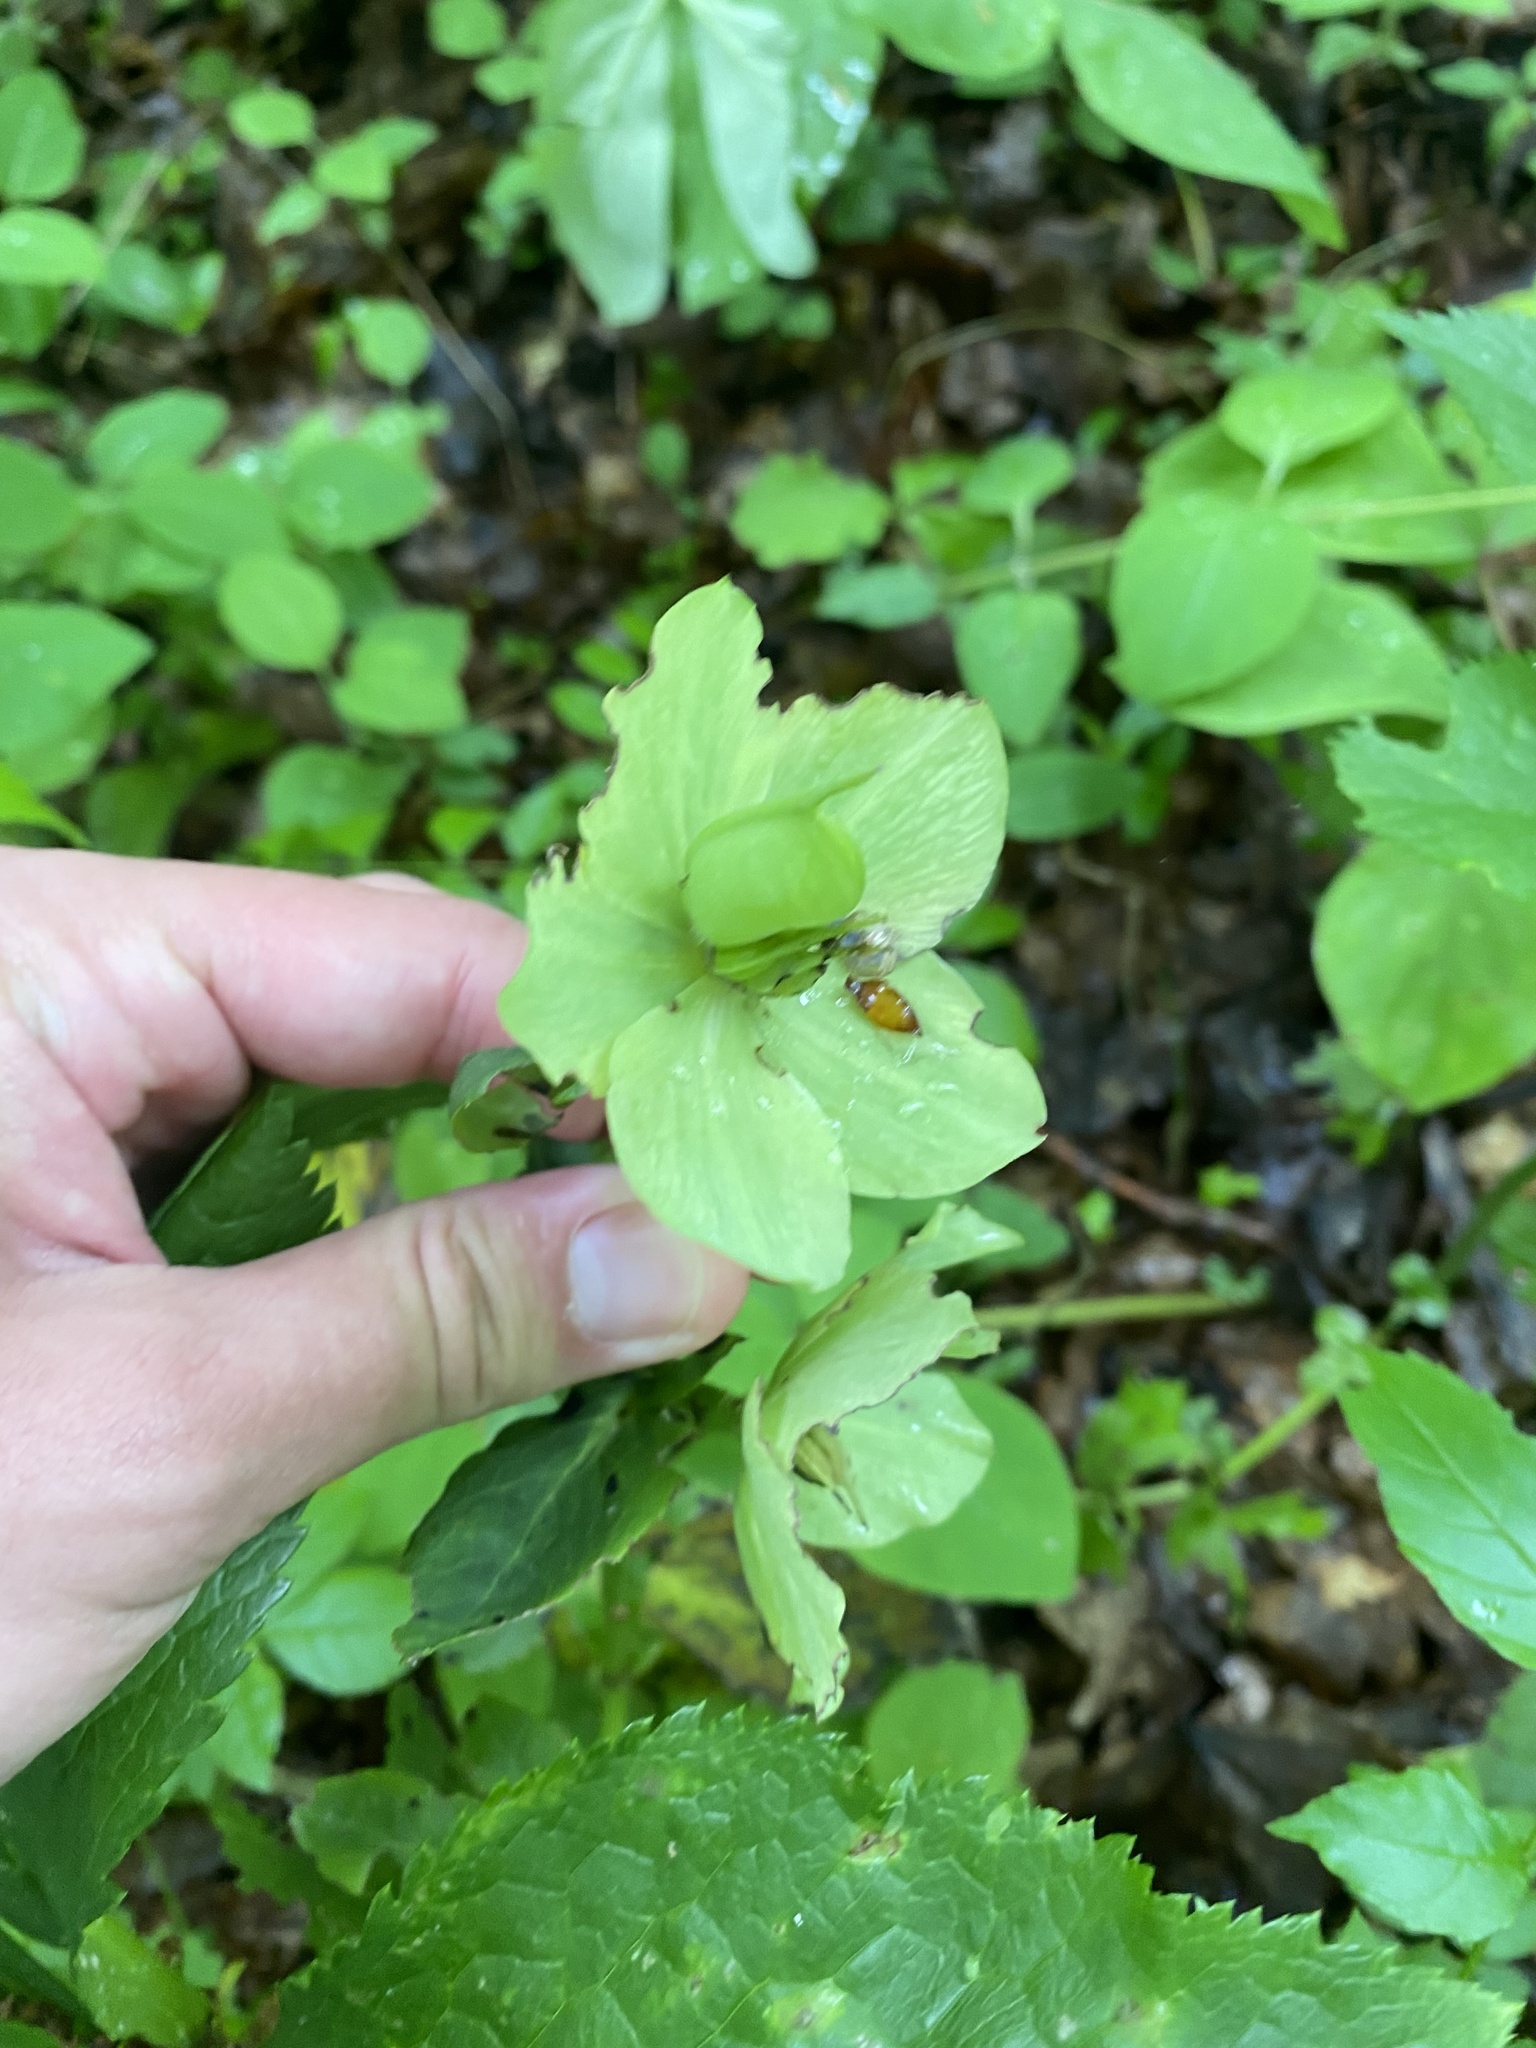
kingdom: Plantae
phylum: Tracheophyta
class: Magnoliopsida
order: Ranunculales
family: Ranunculaceae
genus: Helleborus
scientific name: Helleborus orientalis
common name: Lenten-rose
